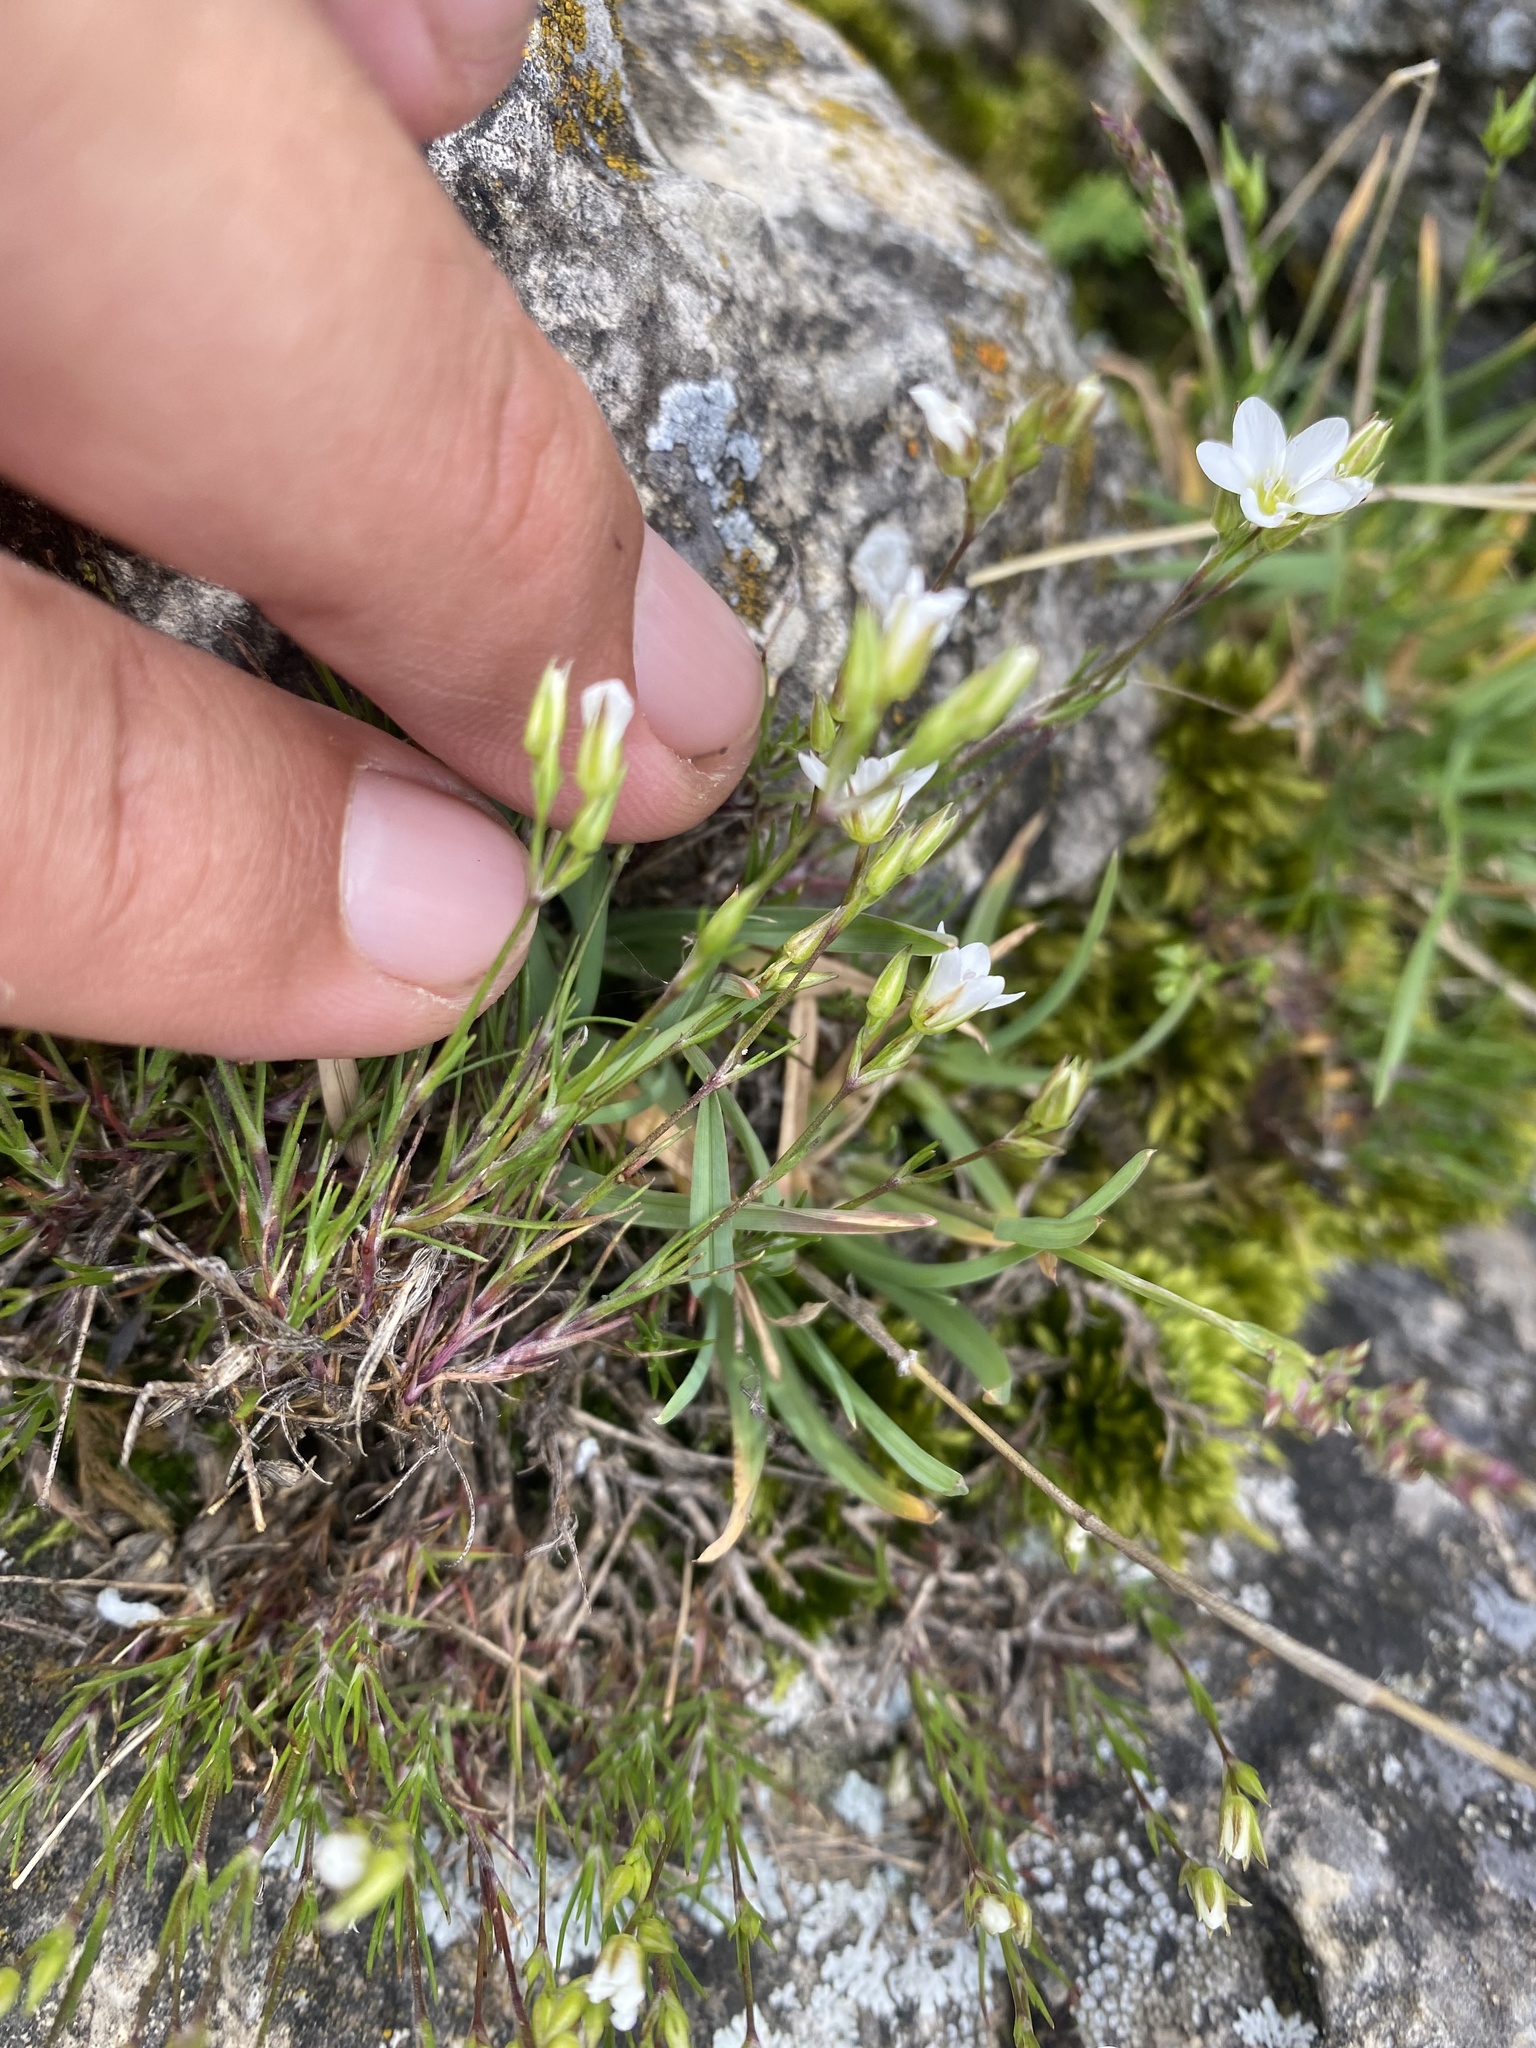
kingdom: Plantae
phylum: Tracheophyta
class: Magnoliopsida
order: Caryophyllales
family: Caryophyllaceae
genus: Minuartia
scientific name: Minuartia buschiana
